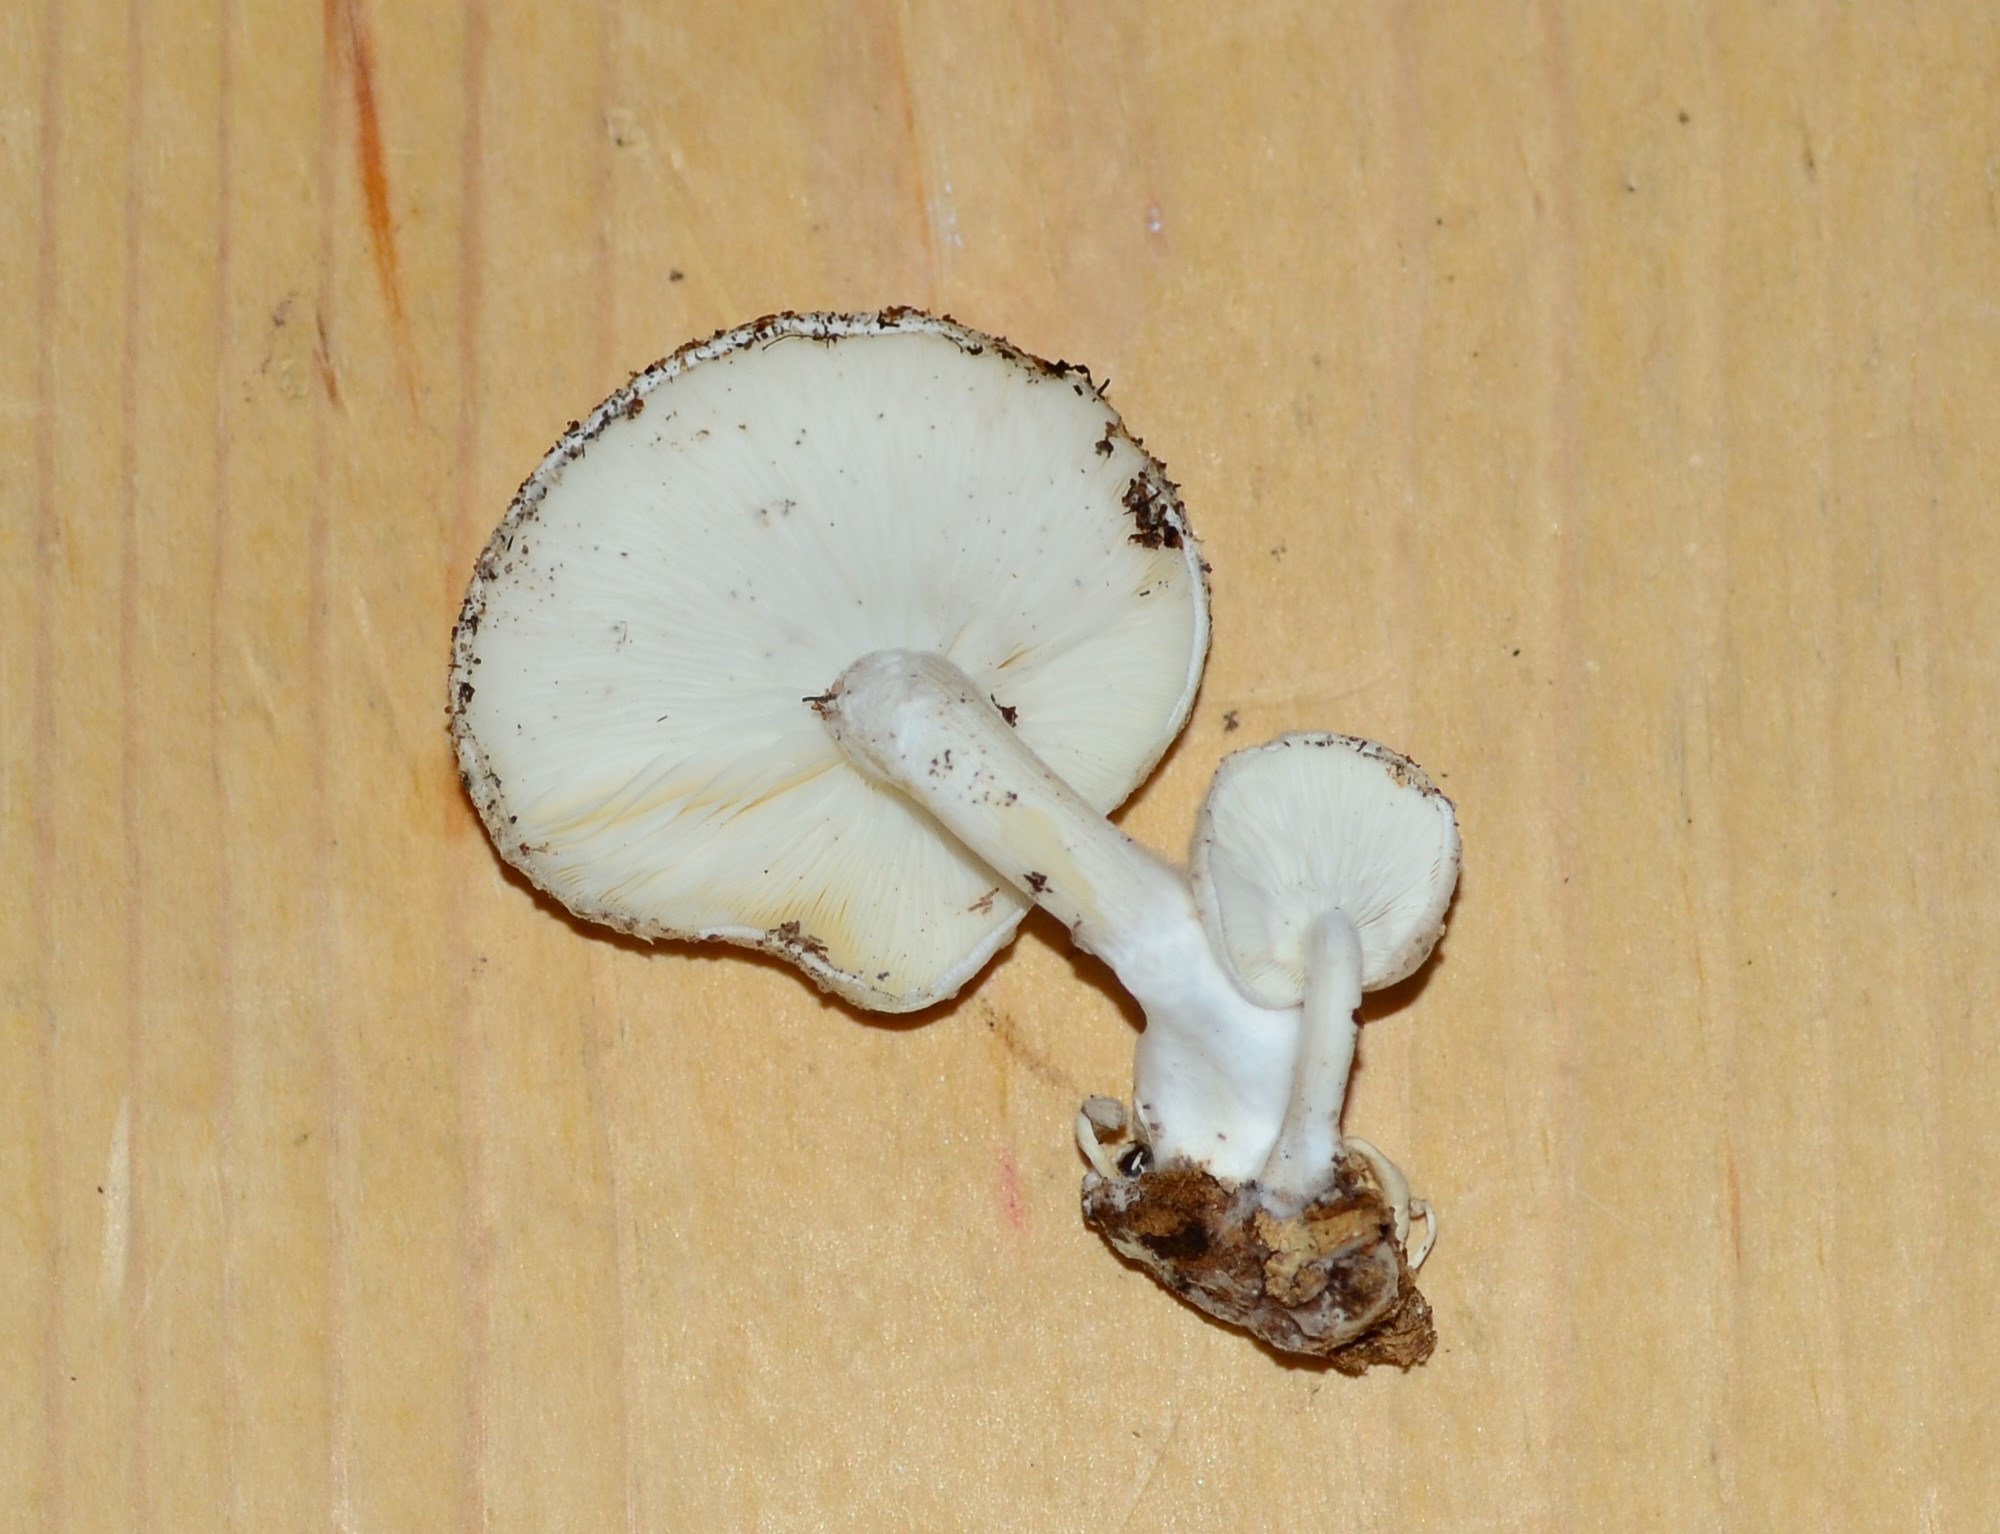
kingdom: Fungi
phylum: Basidiomycota
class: Agaricomycetes
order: Agaricales
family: Lyophyllaceae
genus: Ossicaulis
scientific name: Ossicaulis lignatilis
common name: Mealy oyster
